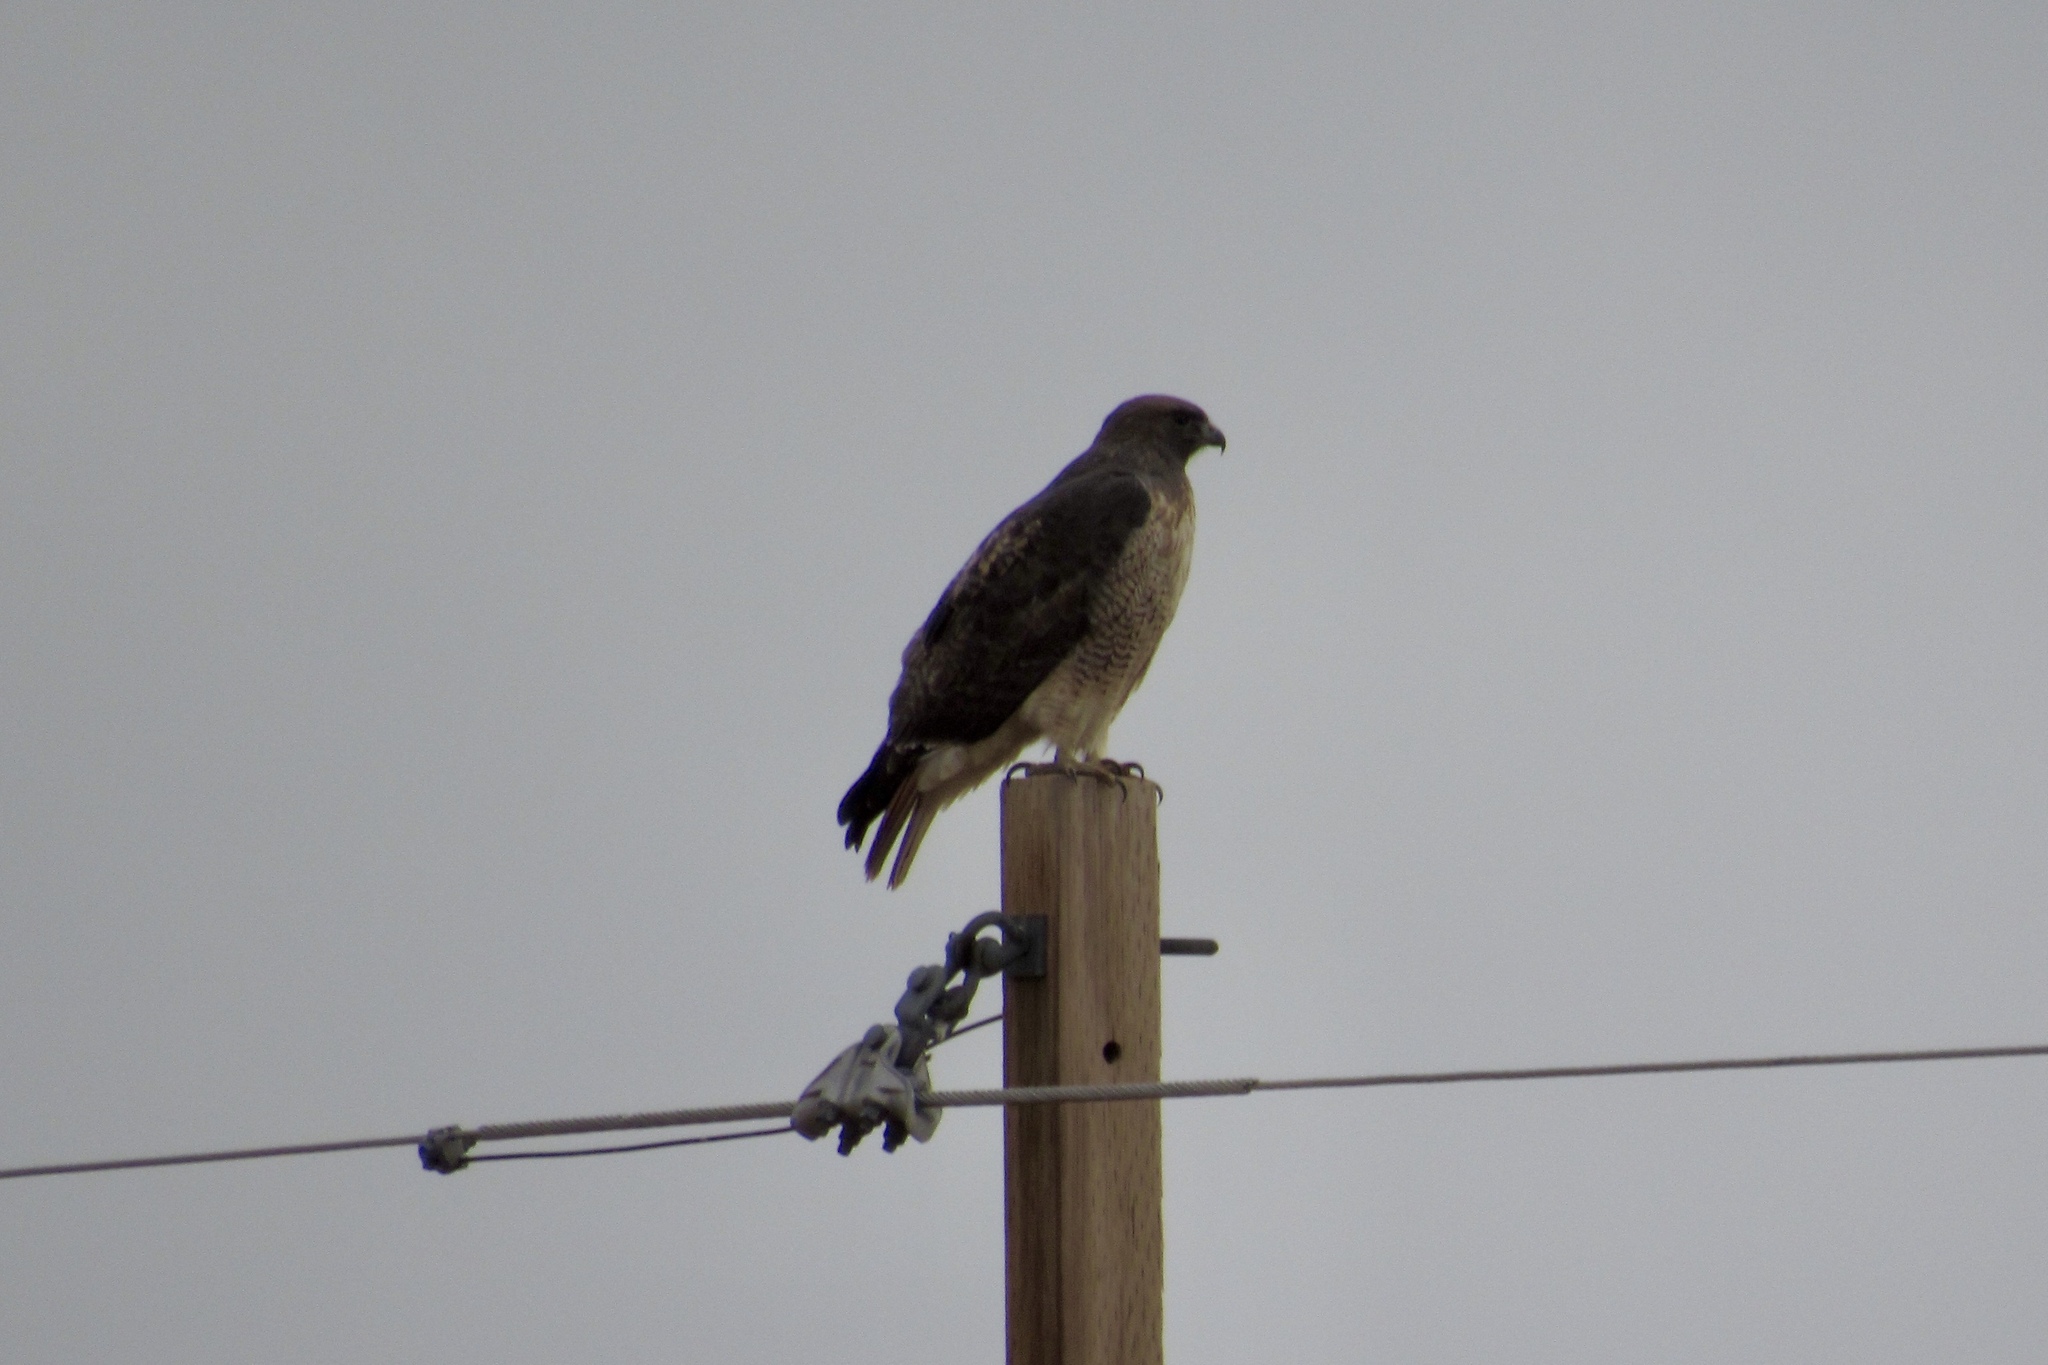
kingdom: Animalia
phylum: Chordata
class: Aves
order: Accipitriformes
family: Accipitridae
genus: Buteo
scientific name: Buteo jamaicensis
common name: Red-tailed hawk
